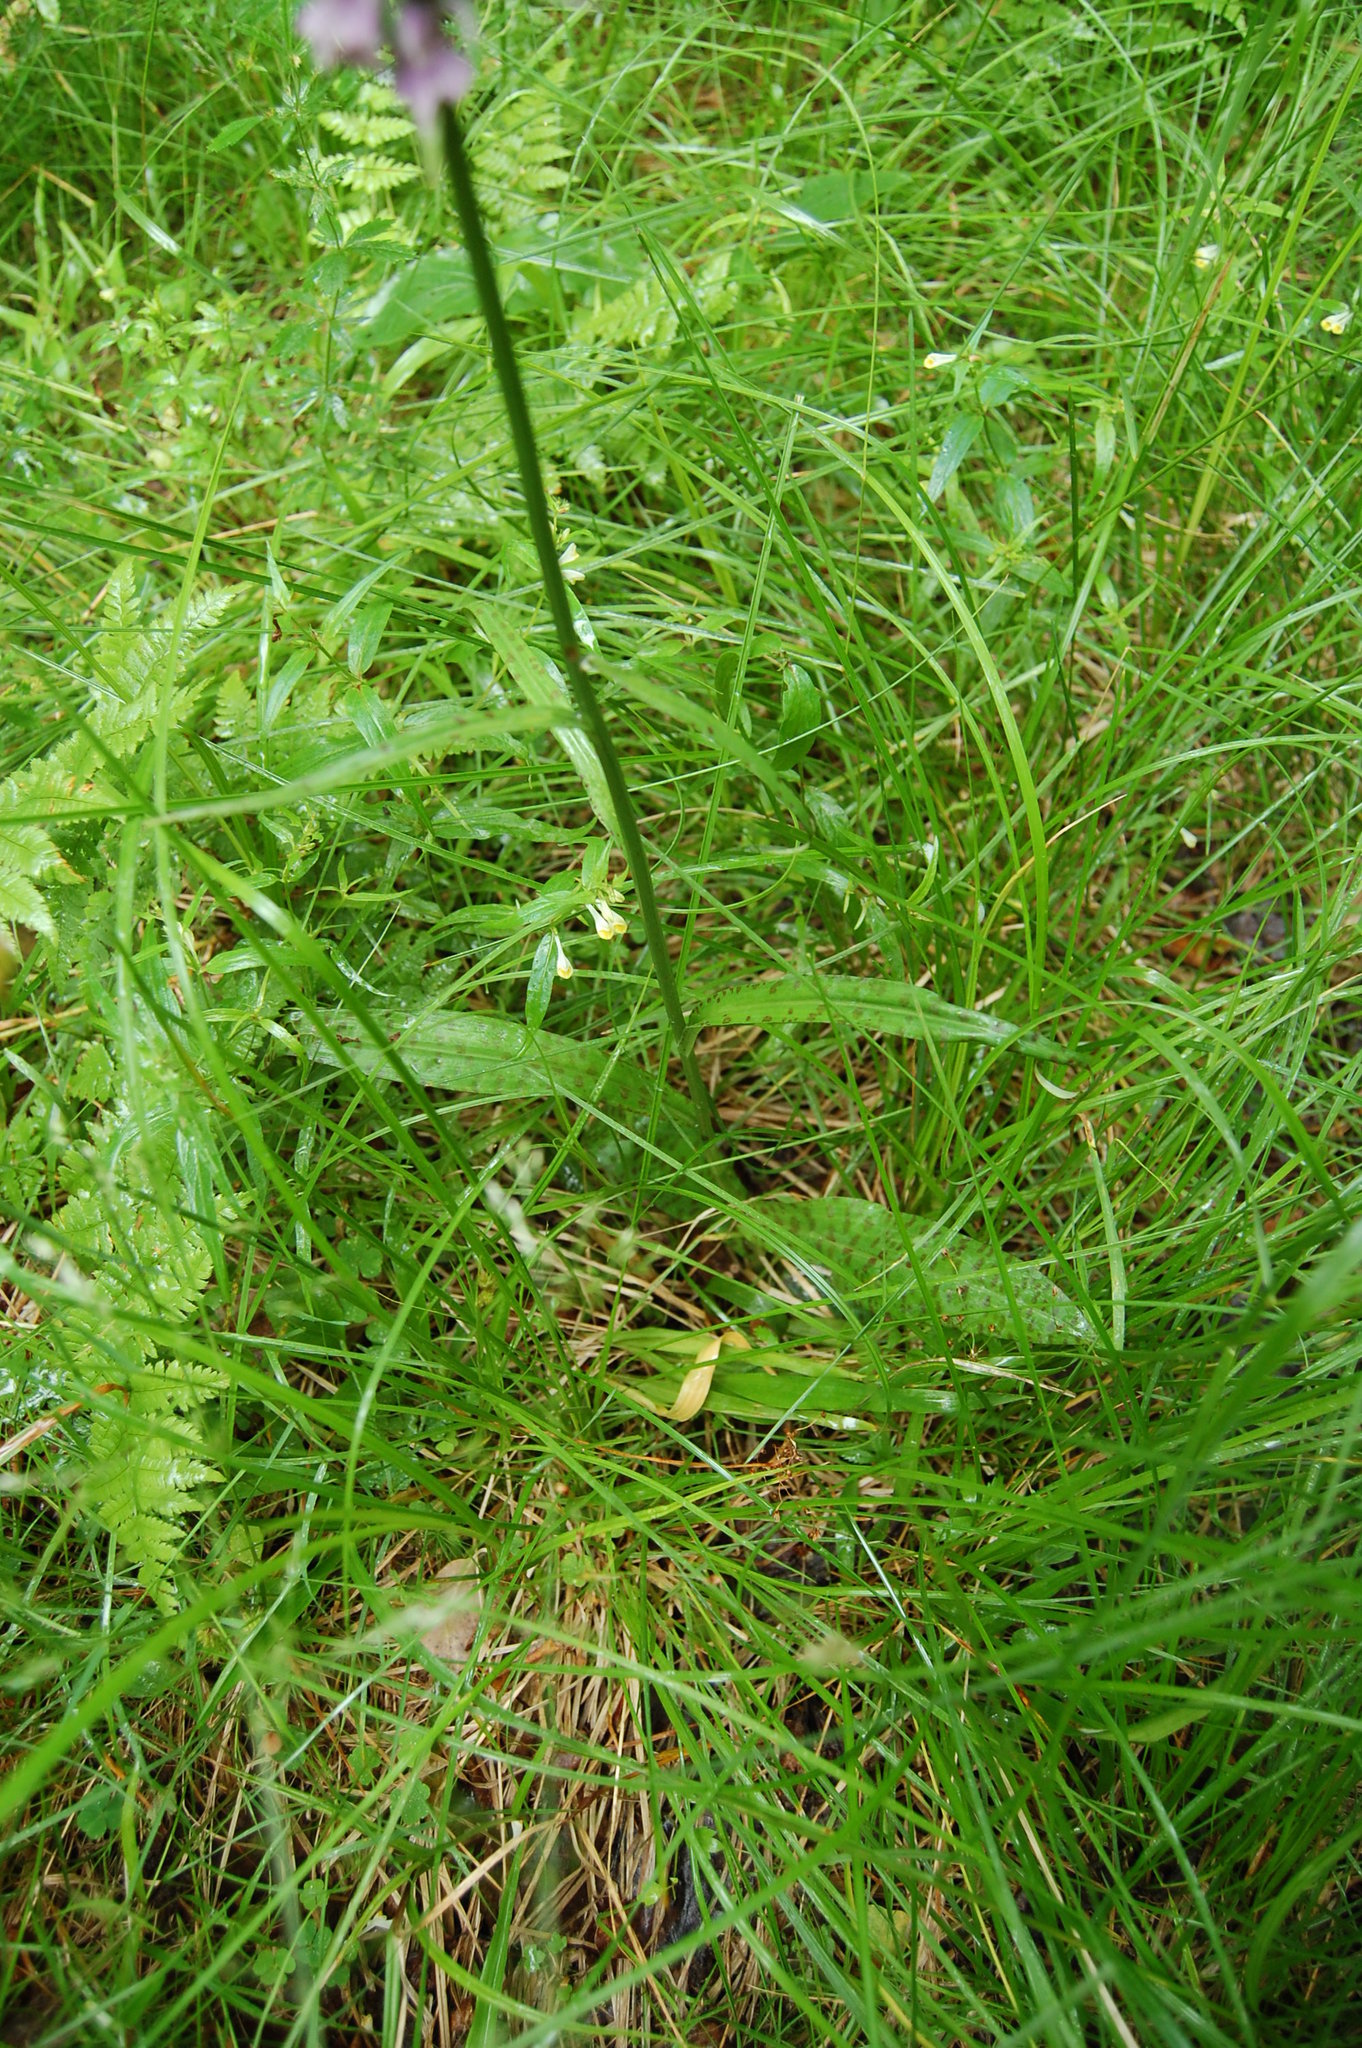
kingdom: Plantae
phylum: Tracheophyta
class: Liliopsida
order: Asparagales
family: Orchidaceae
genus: Dactylorhiza
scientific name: Dactylorhiza maculata
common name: Heath spotted-orchid
